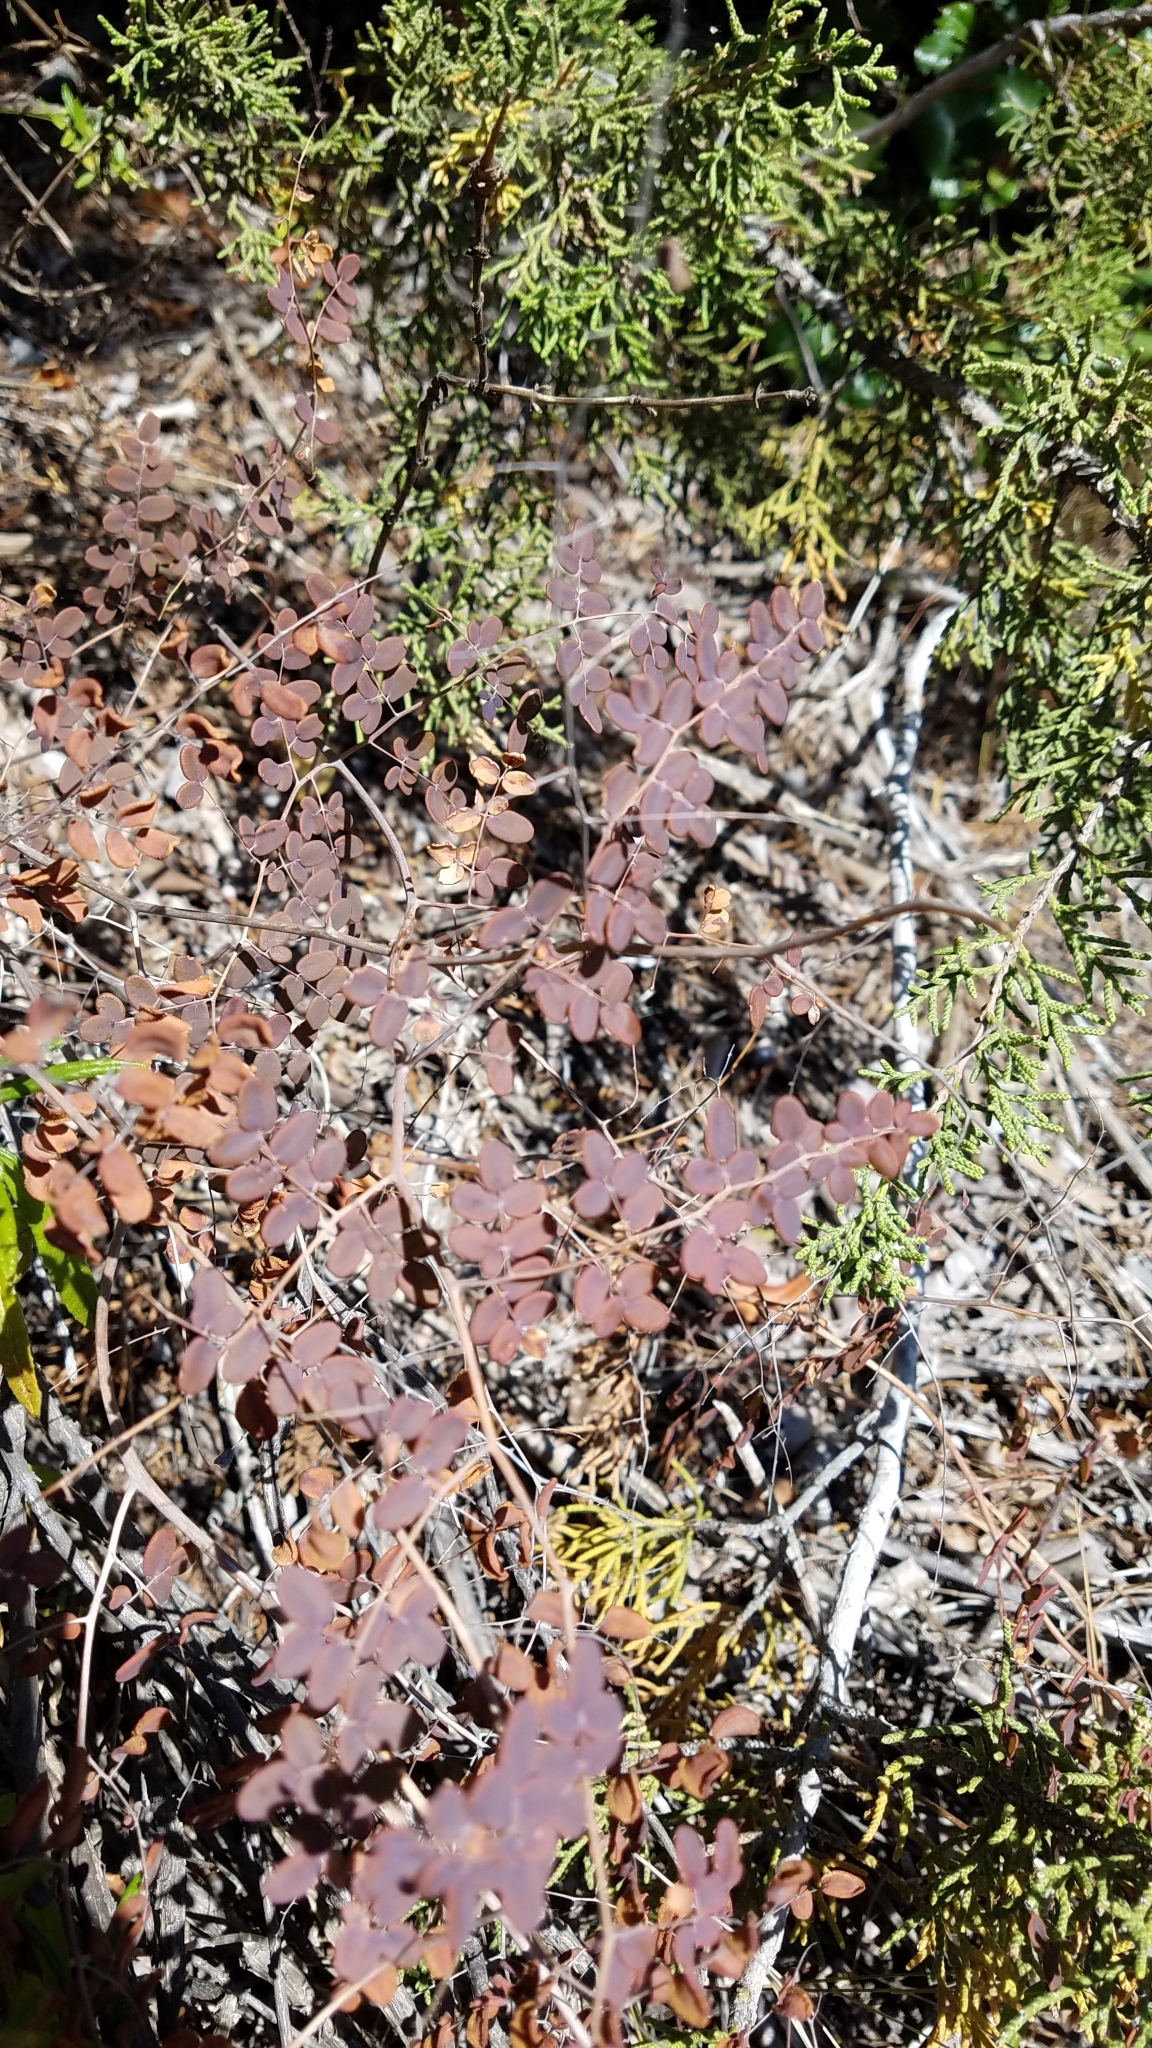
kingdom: Plantae
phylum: Tracheophyta
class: Polypodiopsida
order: Polypodiales
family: Pteridaceae
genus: Pellaea
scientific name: Pellaea andromedifolia
